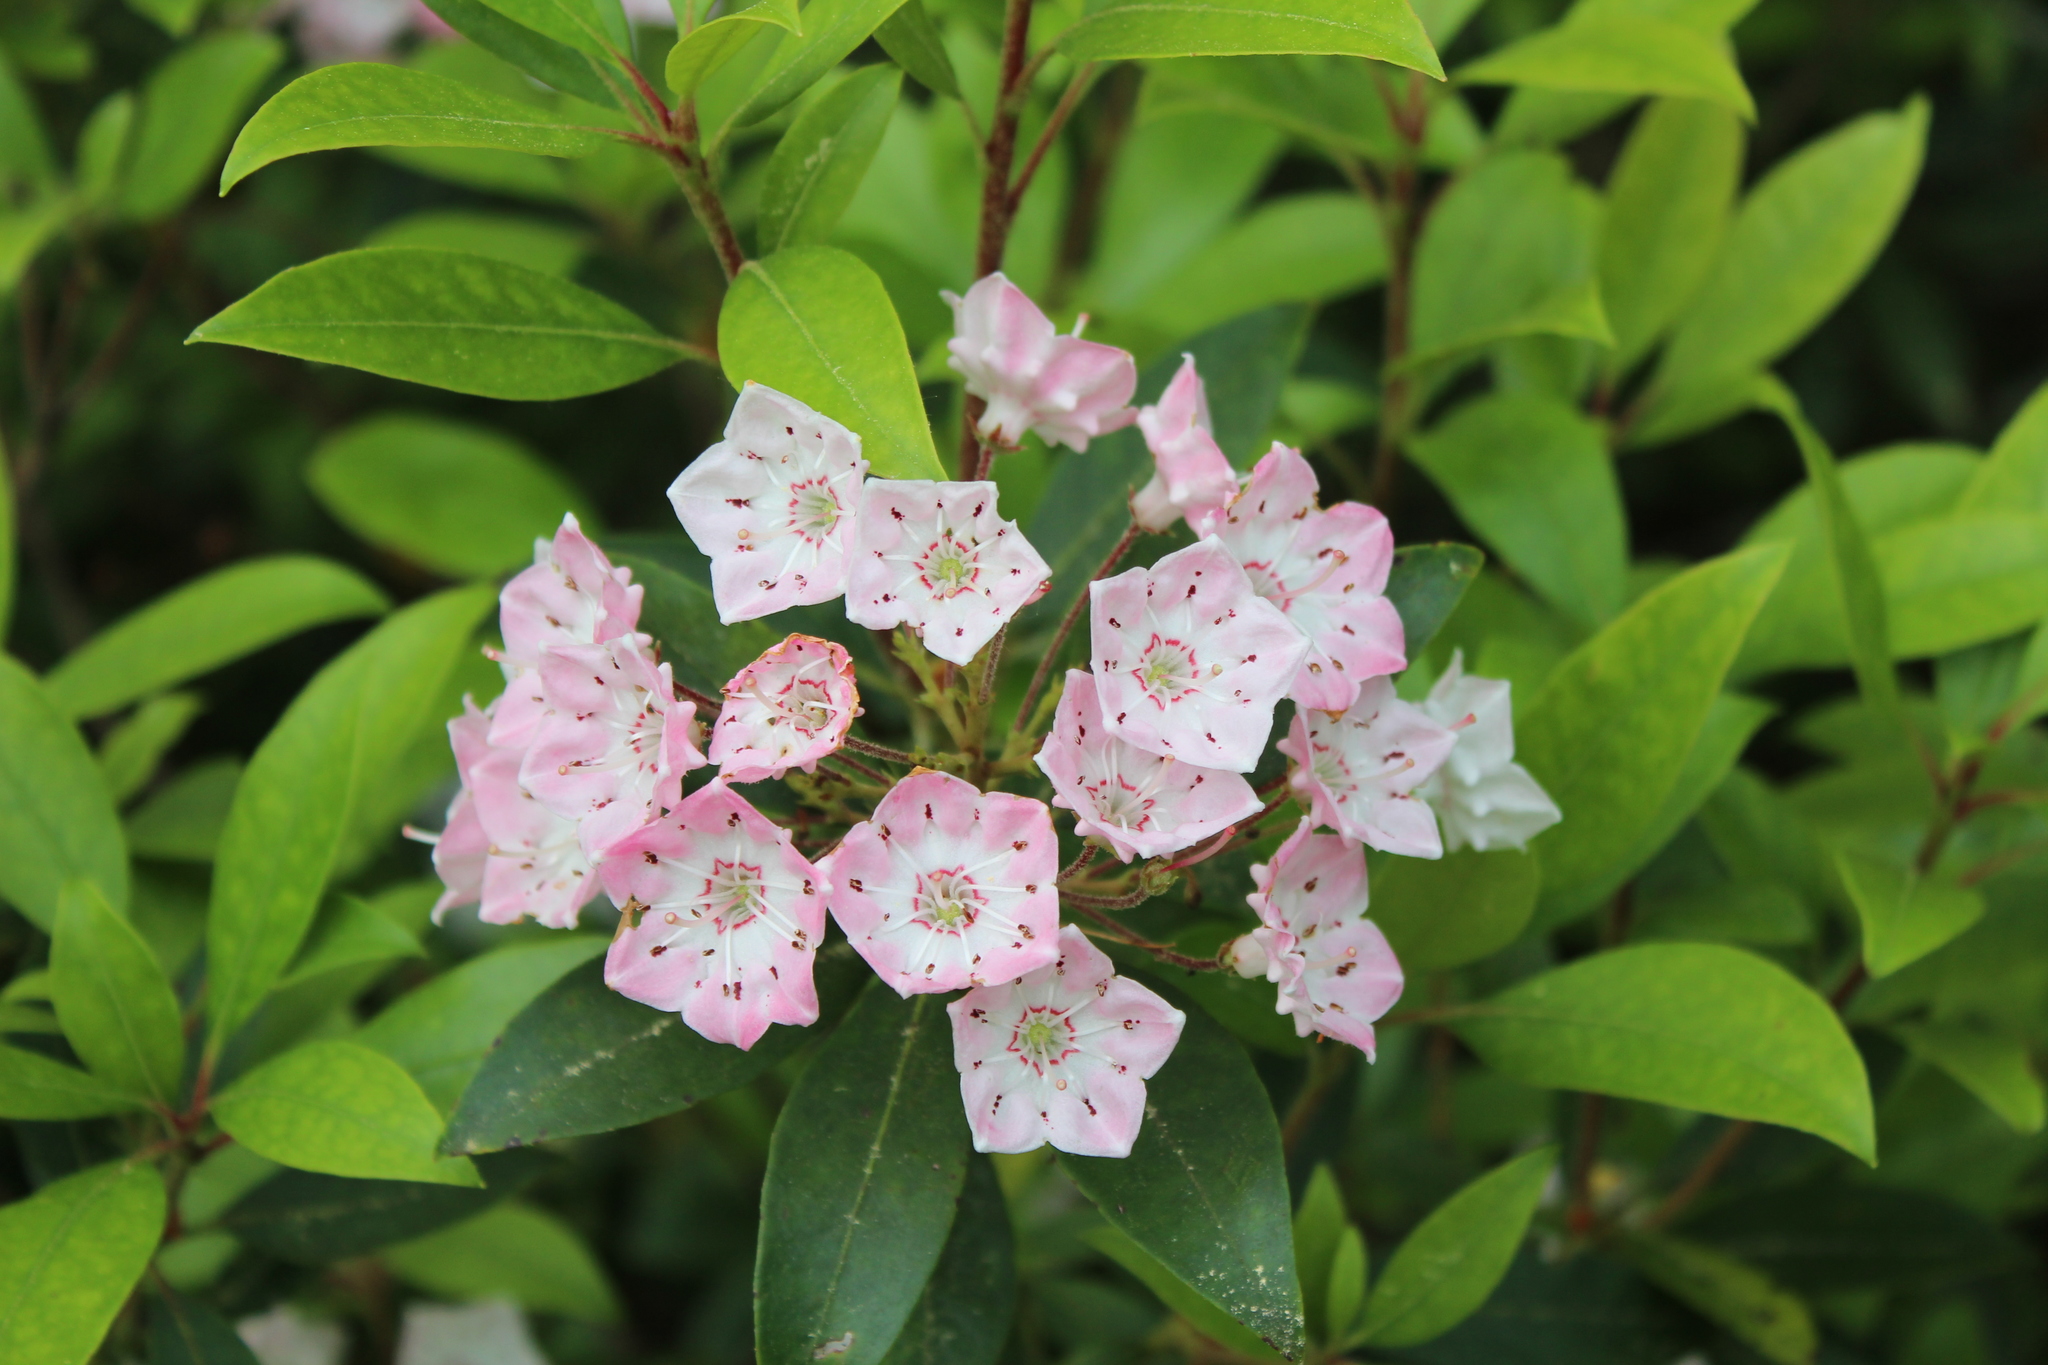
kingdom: Plantae
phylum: Tracheophyta
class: Magnoliopsida
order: Ericales
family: Ericaceae
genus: Kalmia
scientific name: Kalmia latifolia
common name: Mountain-laurel
